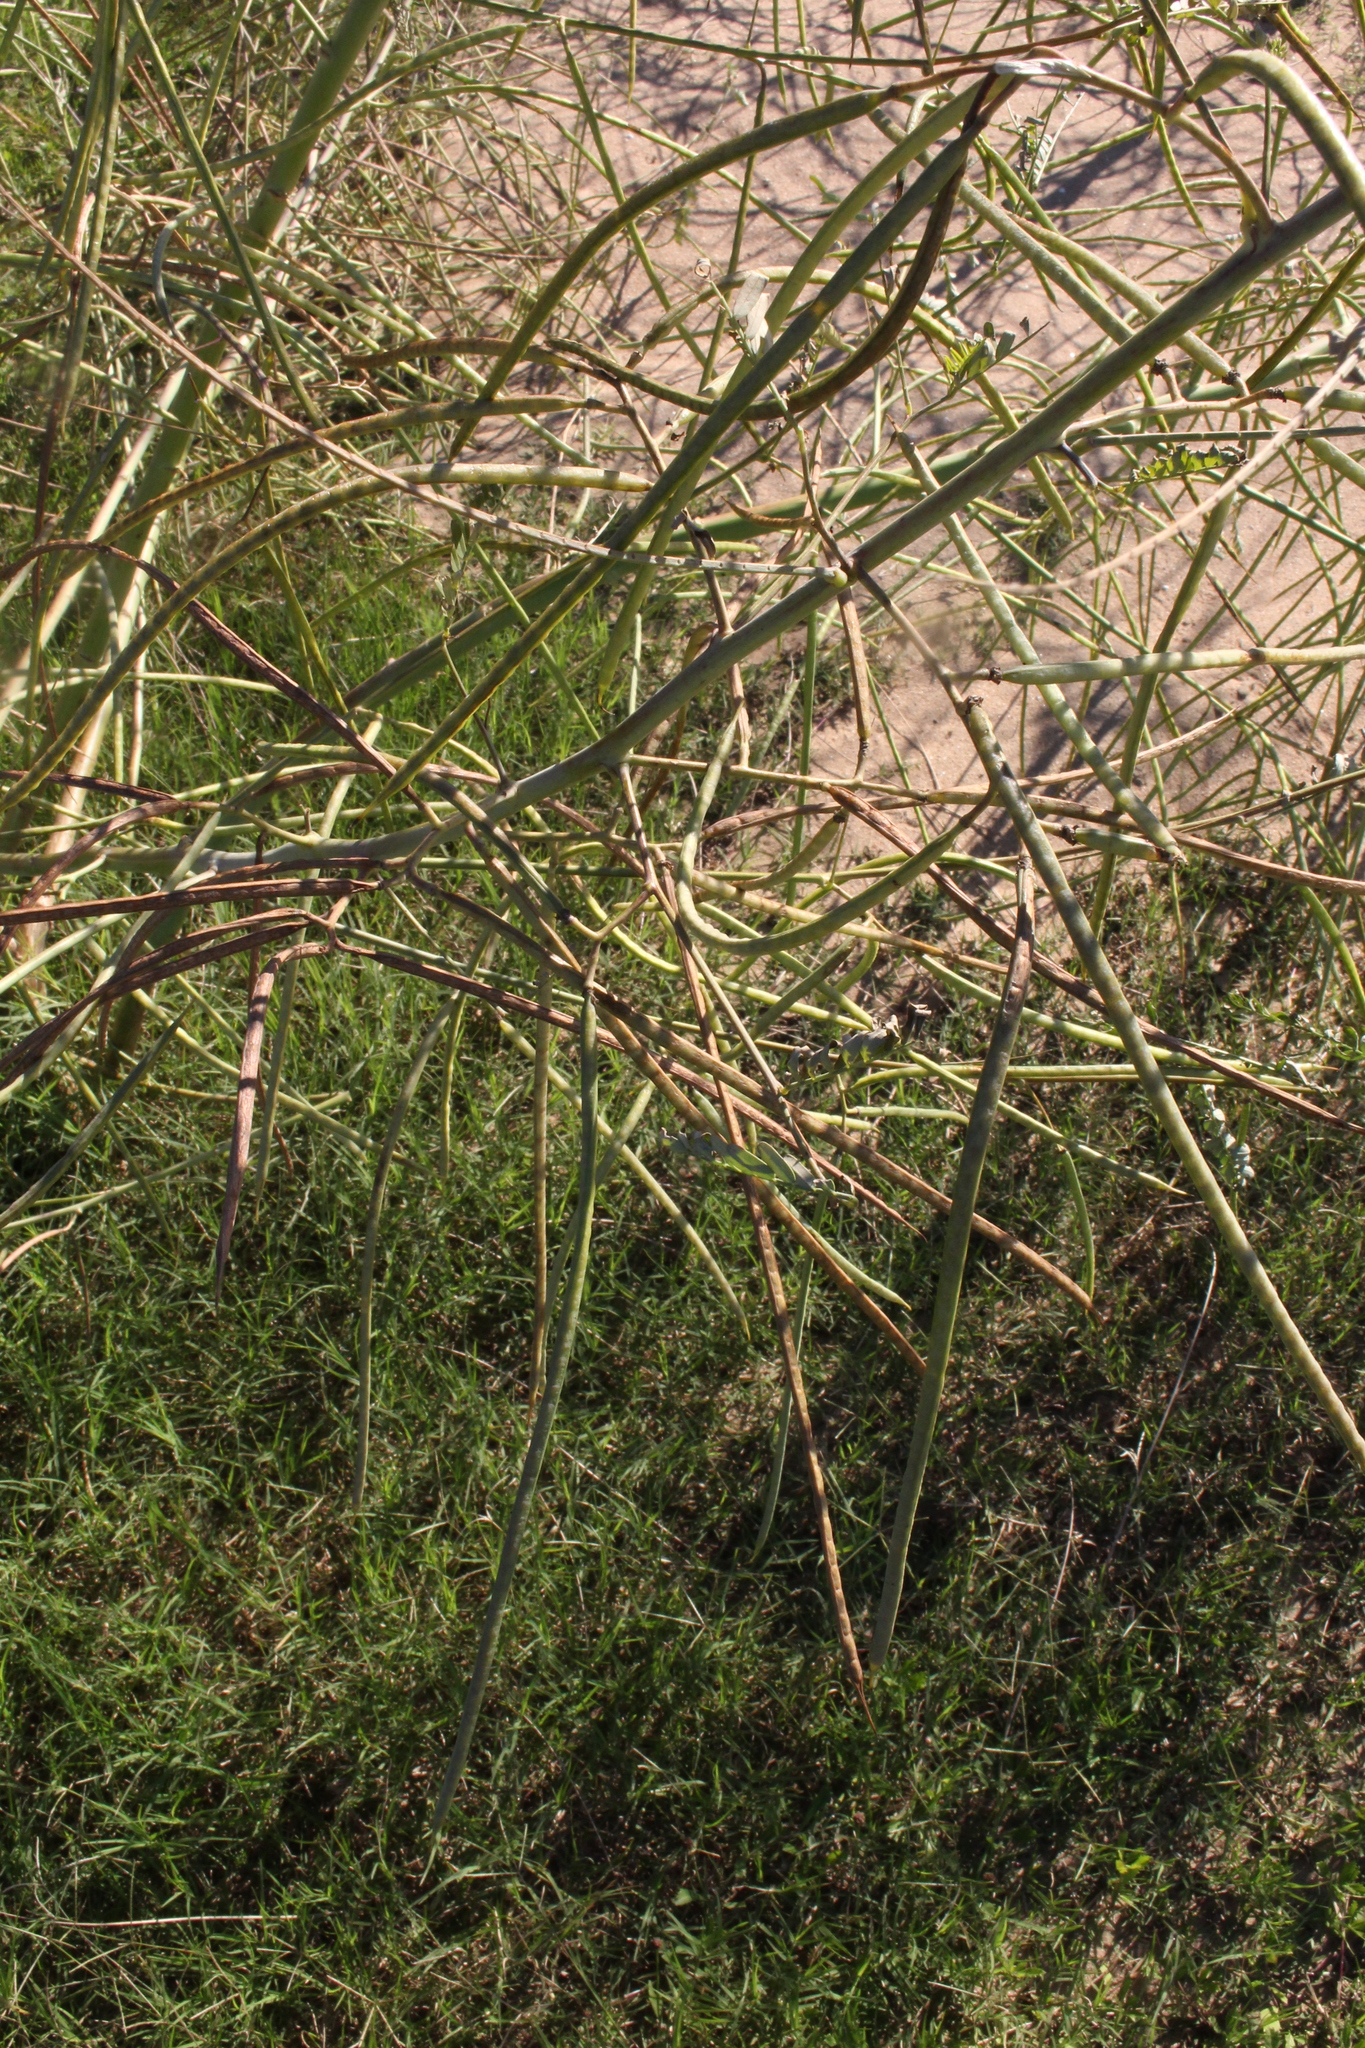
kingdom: Plantae
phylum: Tracheophyta
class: Magnoliopsida
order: Fabales
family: Fabaceae
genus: Sesbania
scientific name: Sesbania herbacea
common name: Bigpod sesbania
